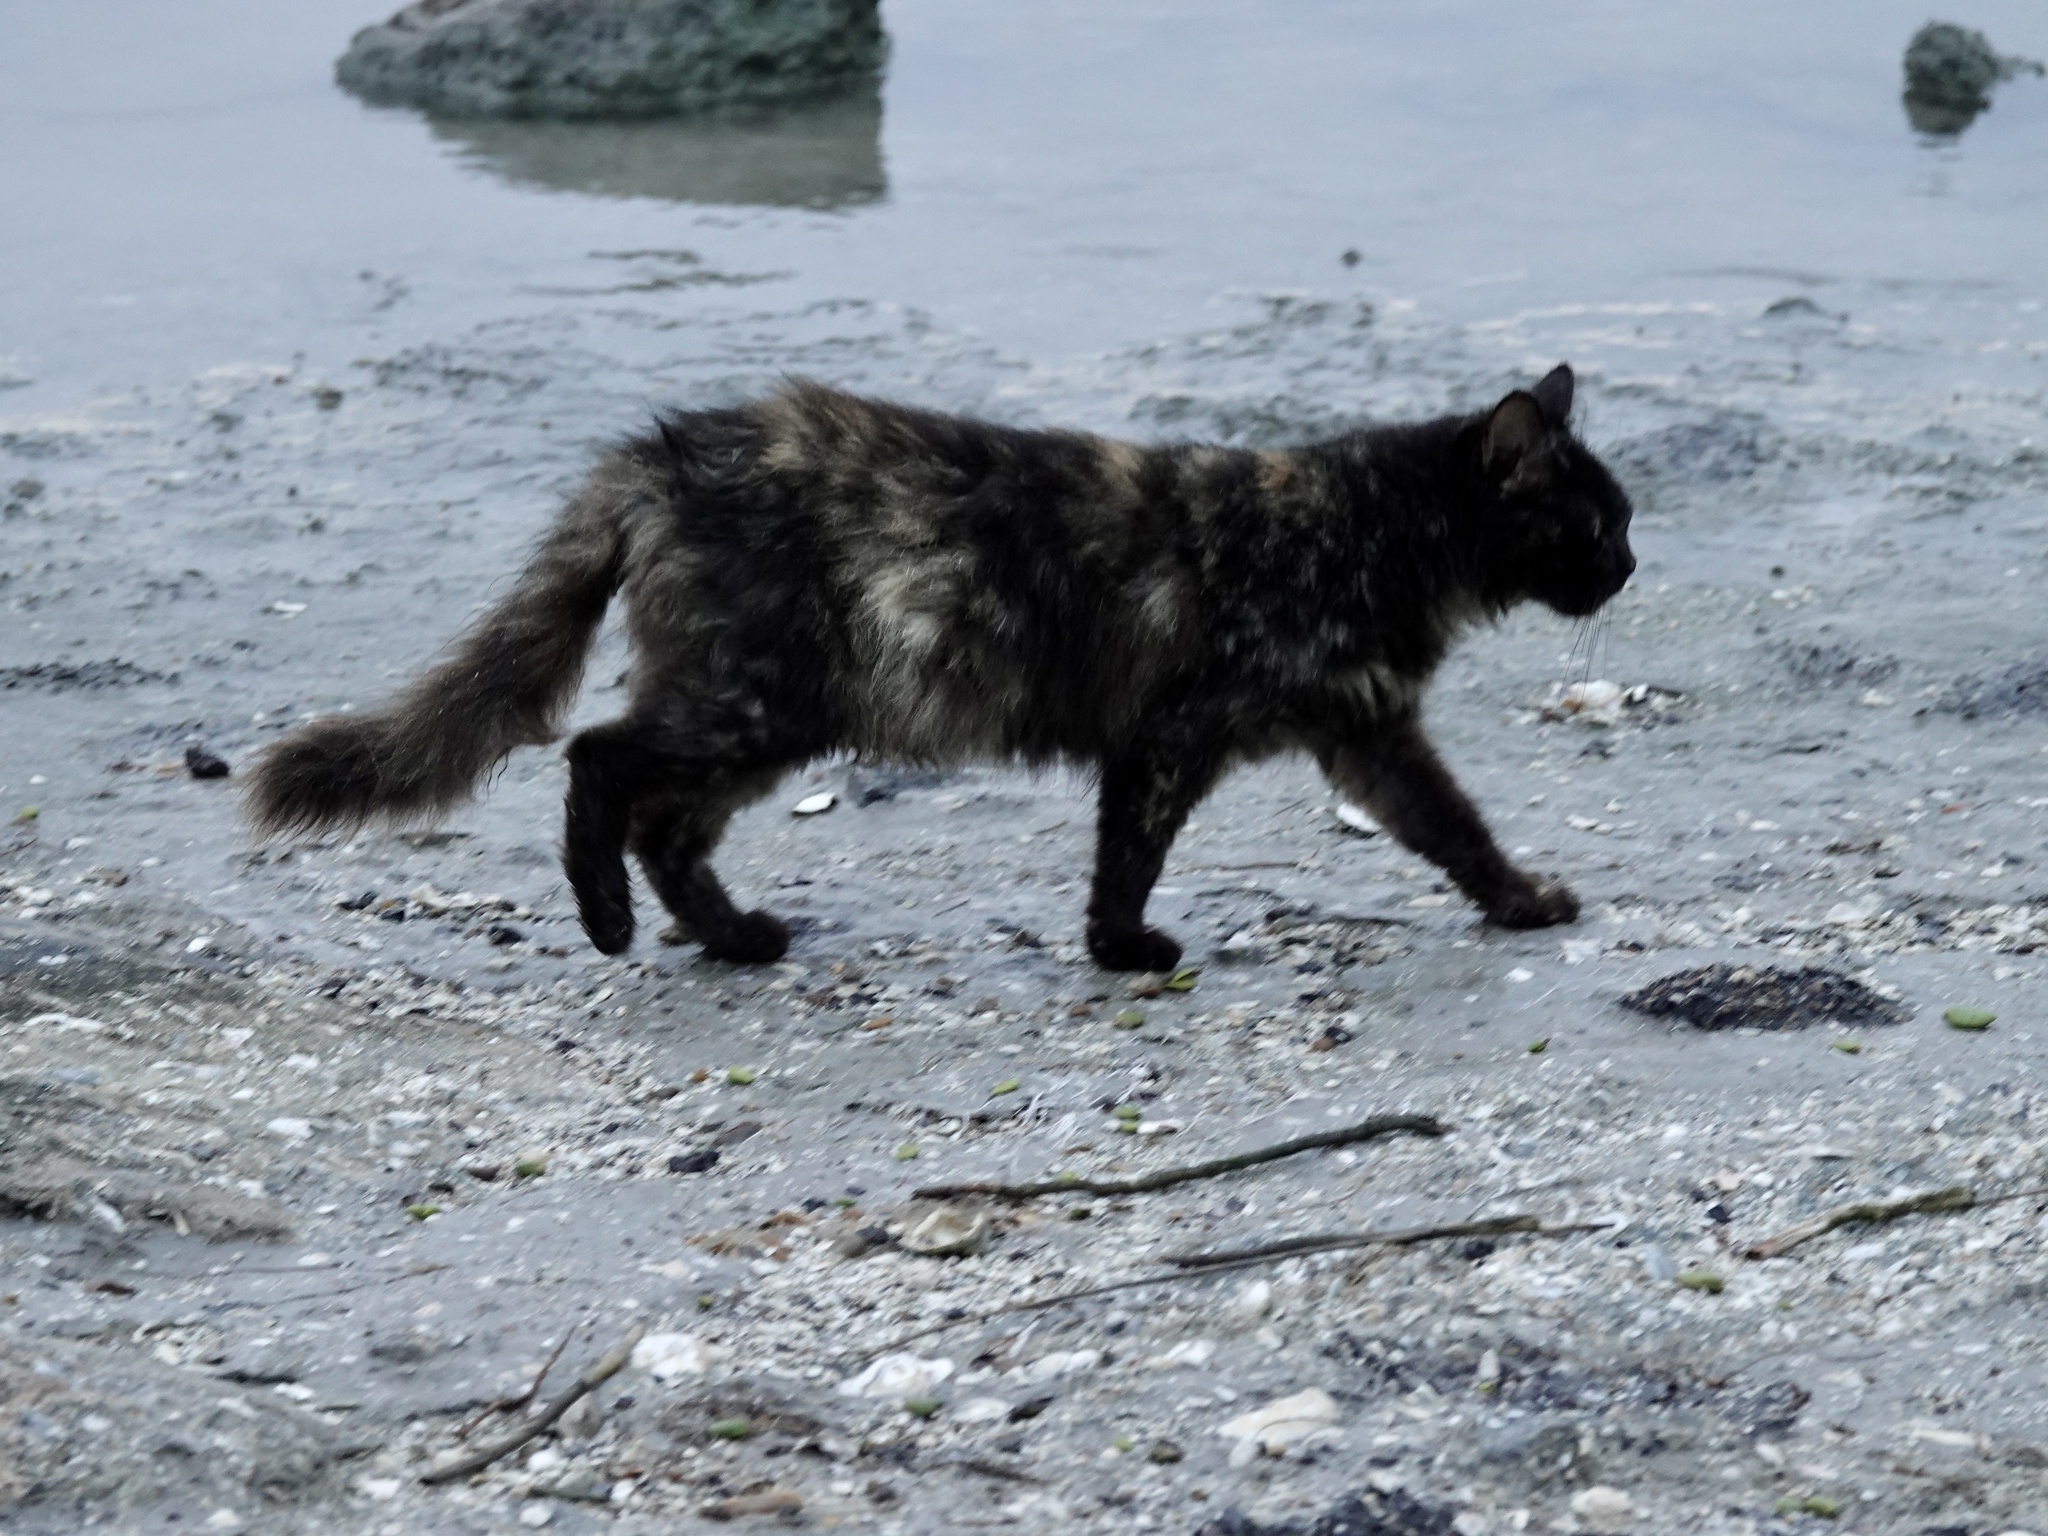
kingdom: Animalia
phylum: Chordata
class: Mammalia
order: Carnivora
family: Felidae
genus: Felis
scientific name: Felis catus
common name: Domestic cat
